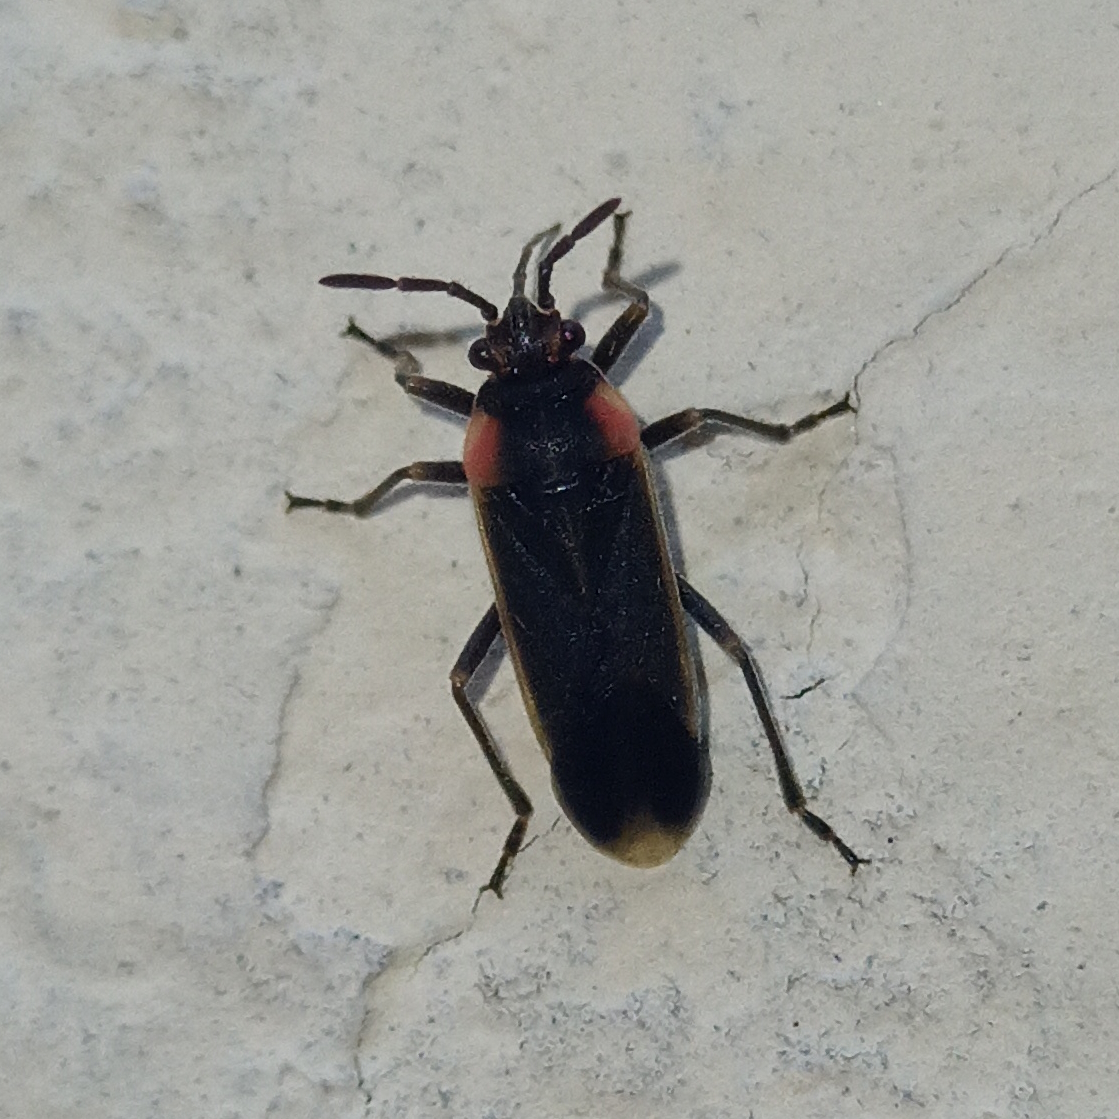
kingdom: Animalia
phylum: Arthropoda
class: Insecta
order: Hemiptera
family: Lygaeidae
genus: Acroleucus
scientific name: Acroleucus coxalis
